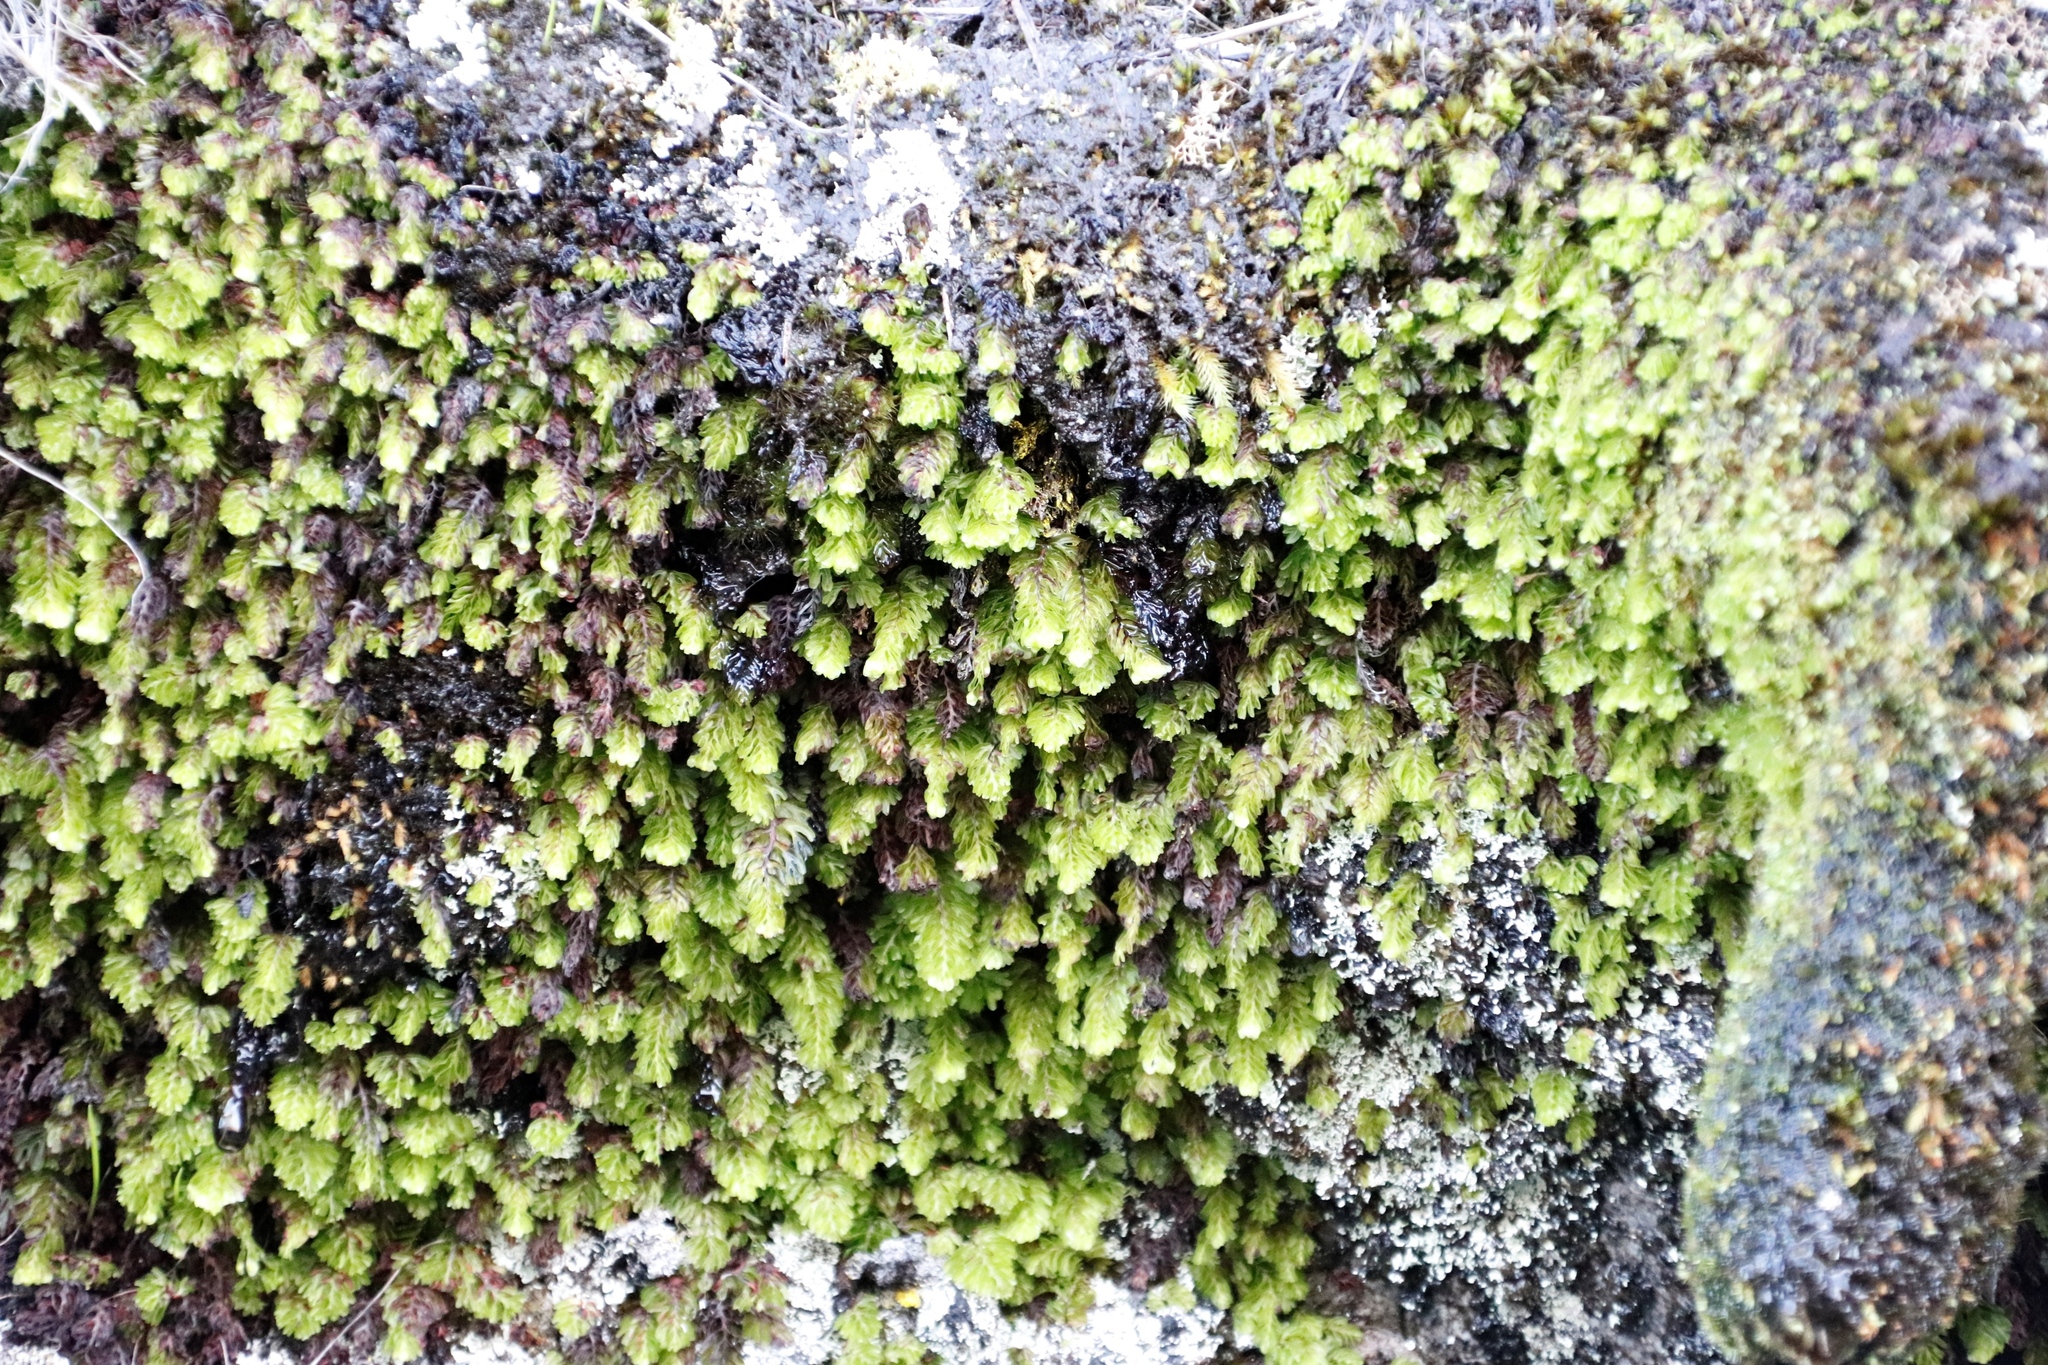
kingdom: Plantae
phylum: Tracheophyta
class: Polypodiopsida
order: Hymenophyllales
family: Hymenophyllaceae
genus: Hymenophyllum
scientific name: Hymenophyllum capense
